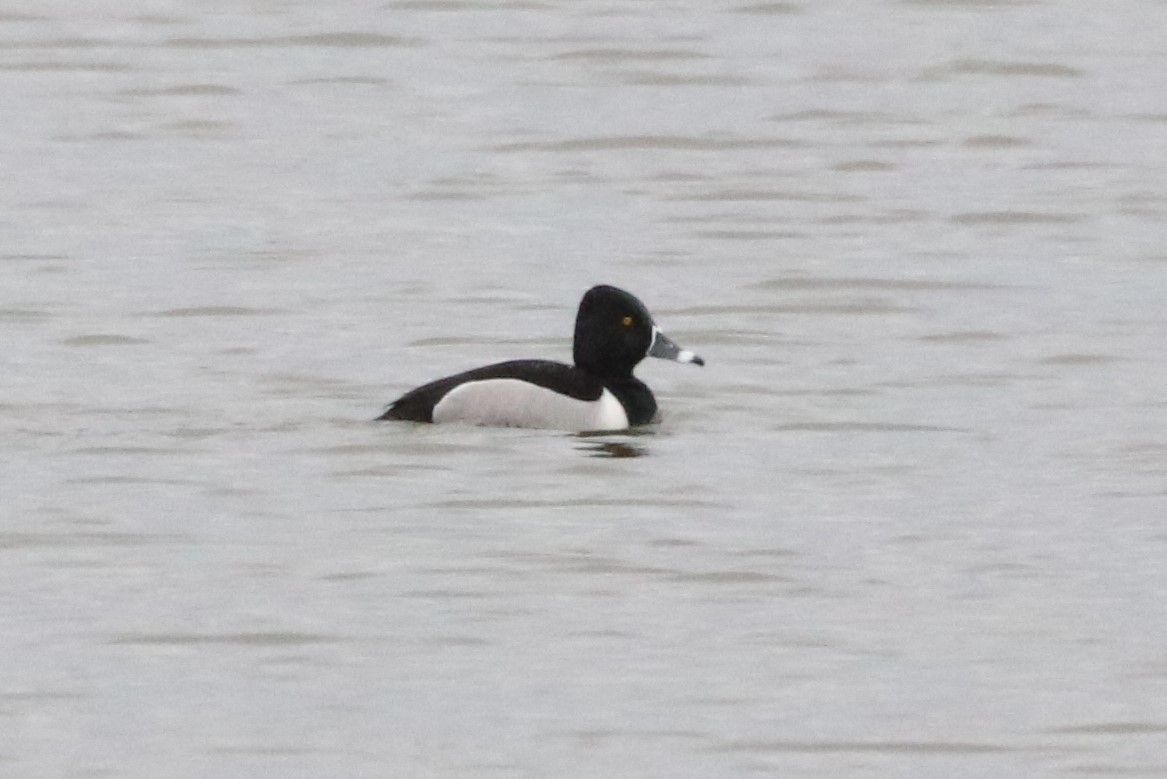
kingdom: Animalia
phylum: Chordata
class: Aves
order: Anseriformes
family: Anatidae
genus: Aythya
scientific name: Aythya collaris
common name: Ring-necked duck
